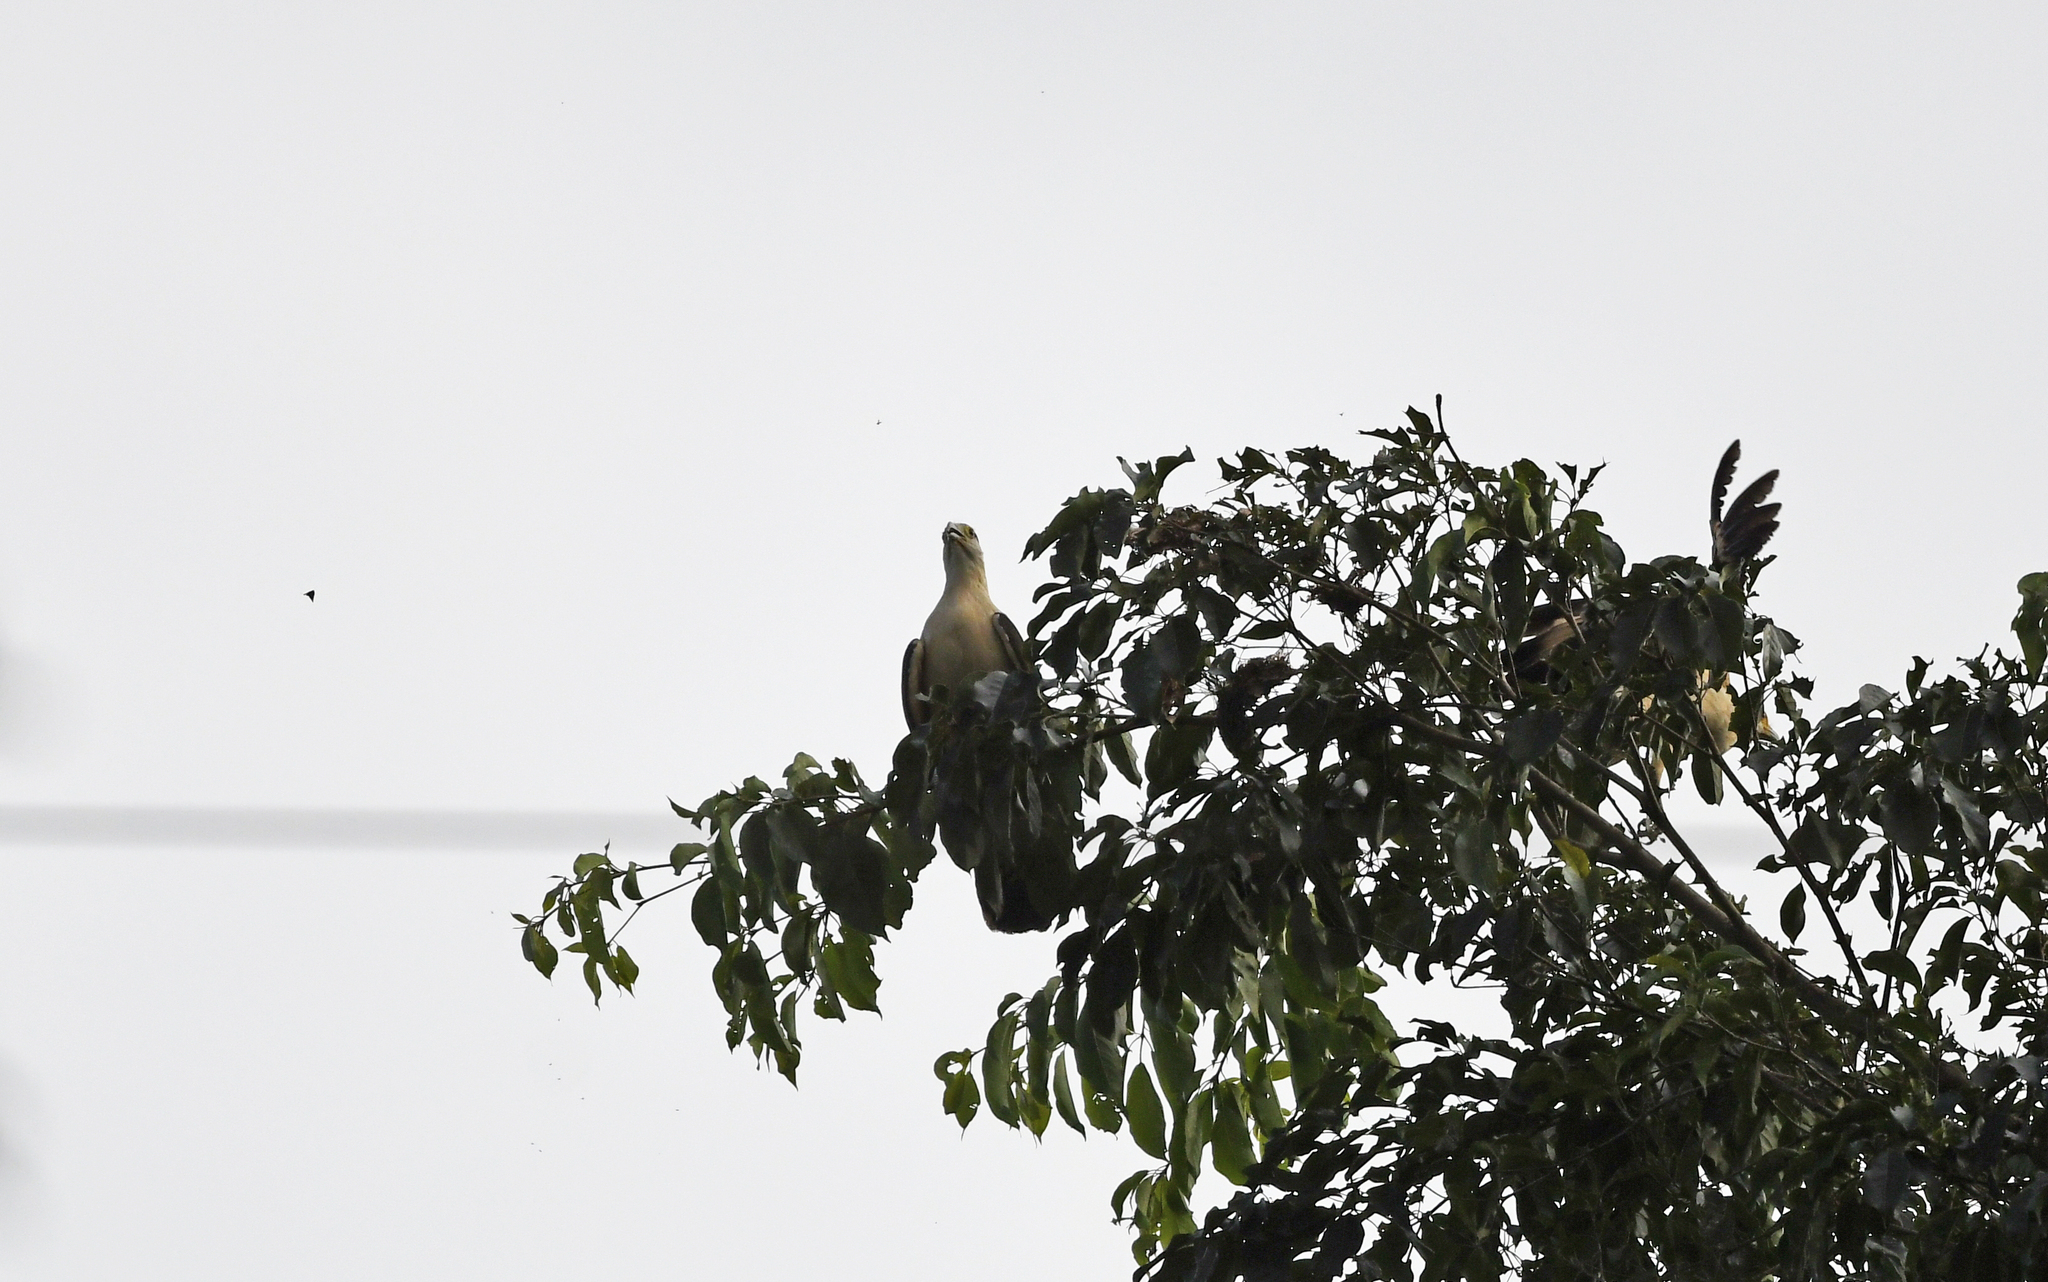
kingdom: Animalia
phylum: Chordata
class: Aves
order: Falconiformes
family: Falconidae
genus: Daptrius
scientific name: Daptrius
